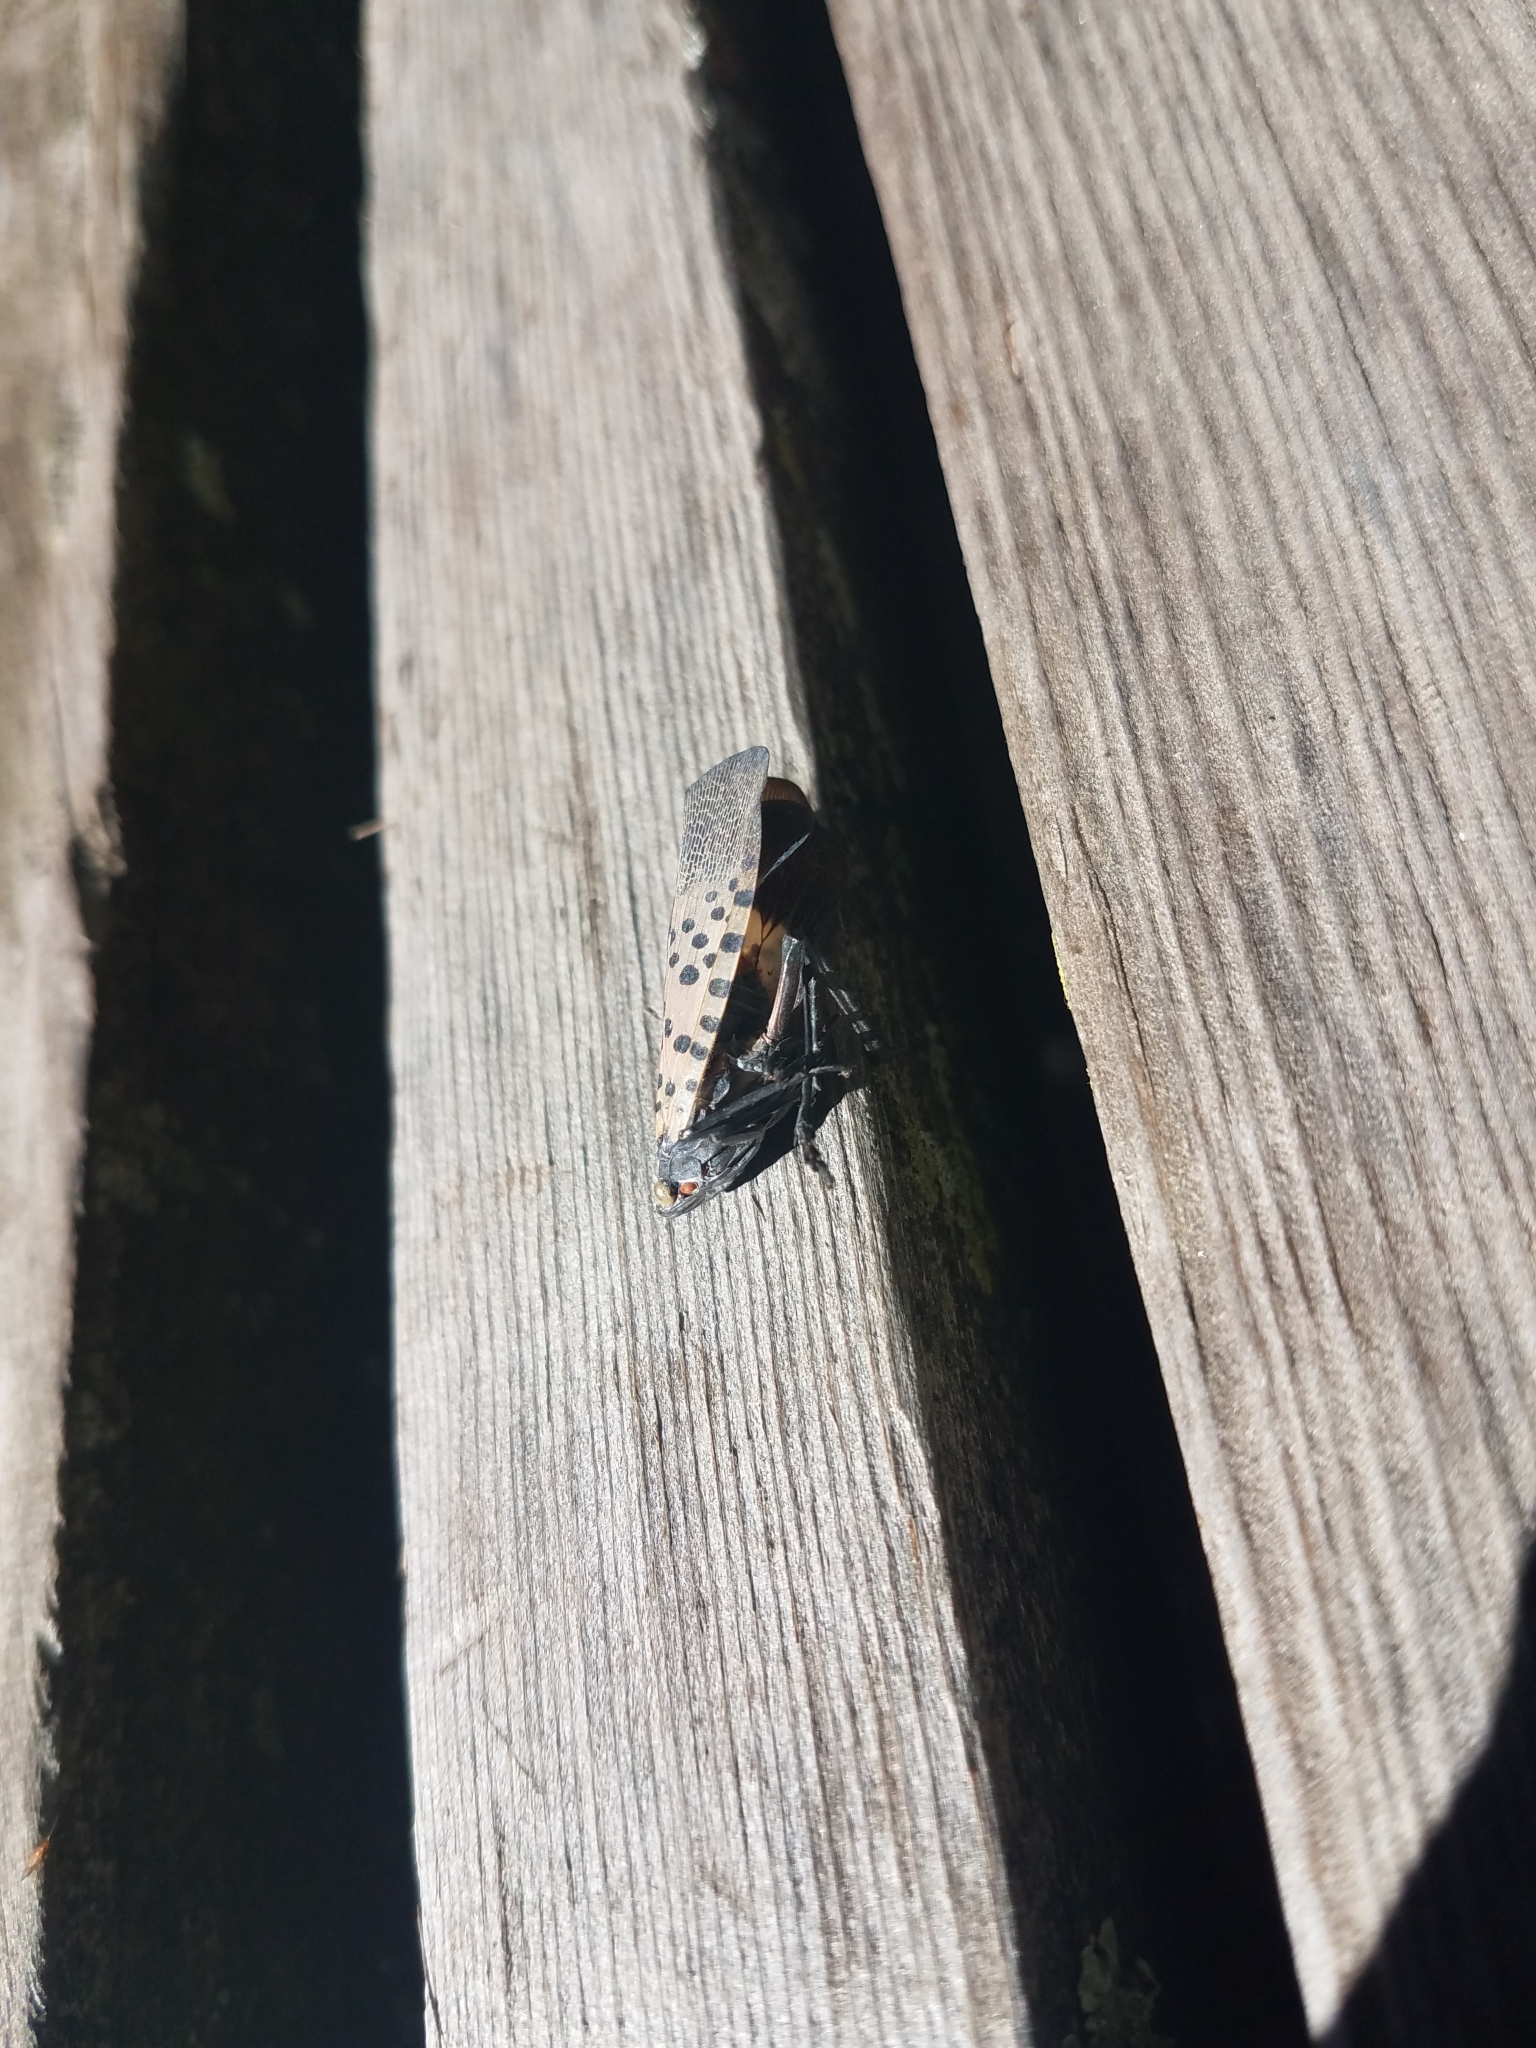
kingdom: Animalia
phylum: Arthropoda
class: Insecta
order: Hemiptera
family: Fulgoridae
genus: Lycorma
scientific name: Lycorma delicatula
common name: Spotted lanternfly
